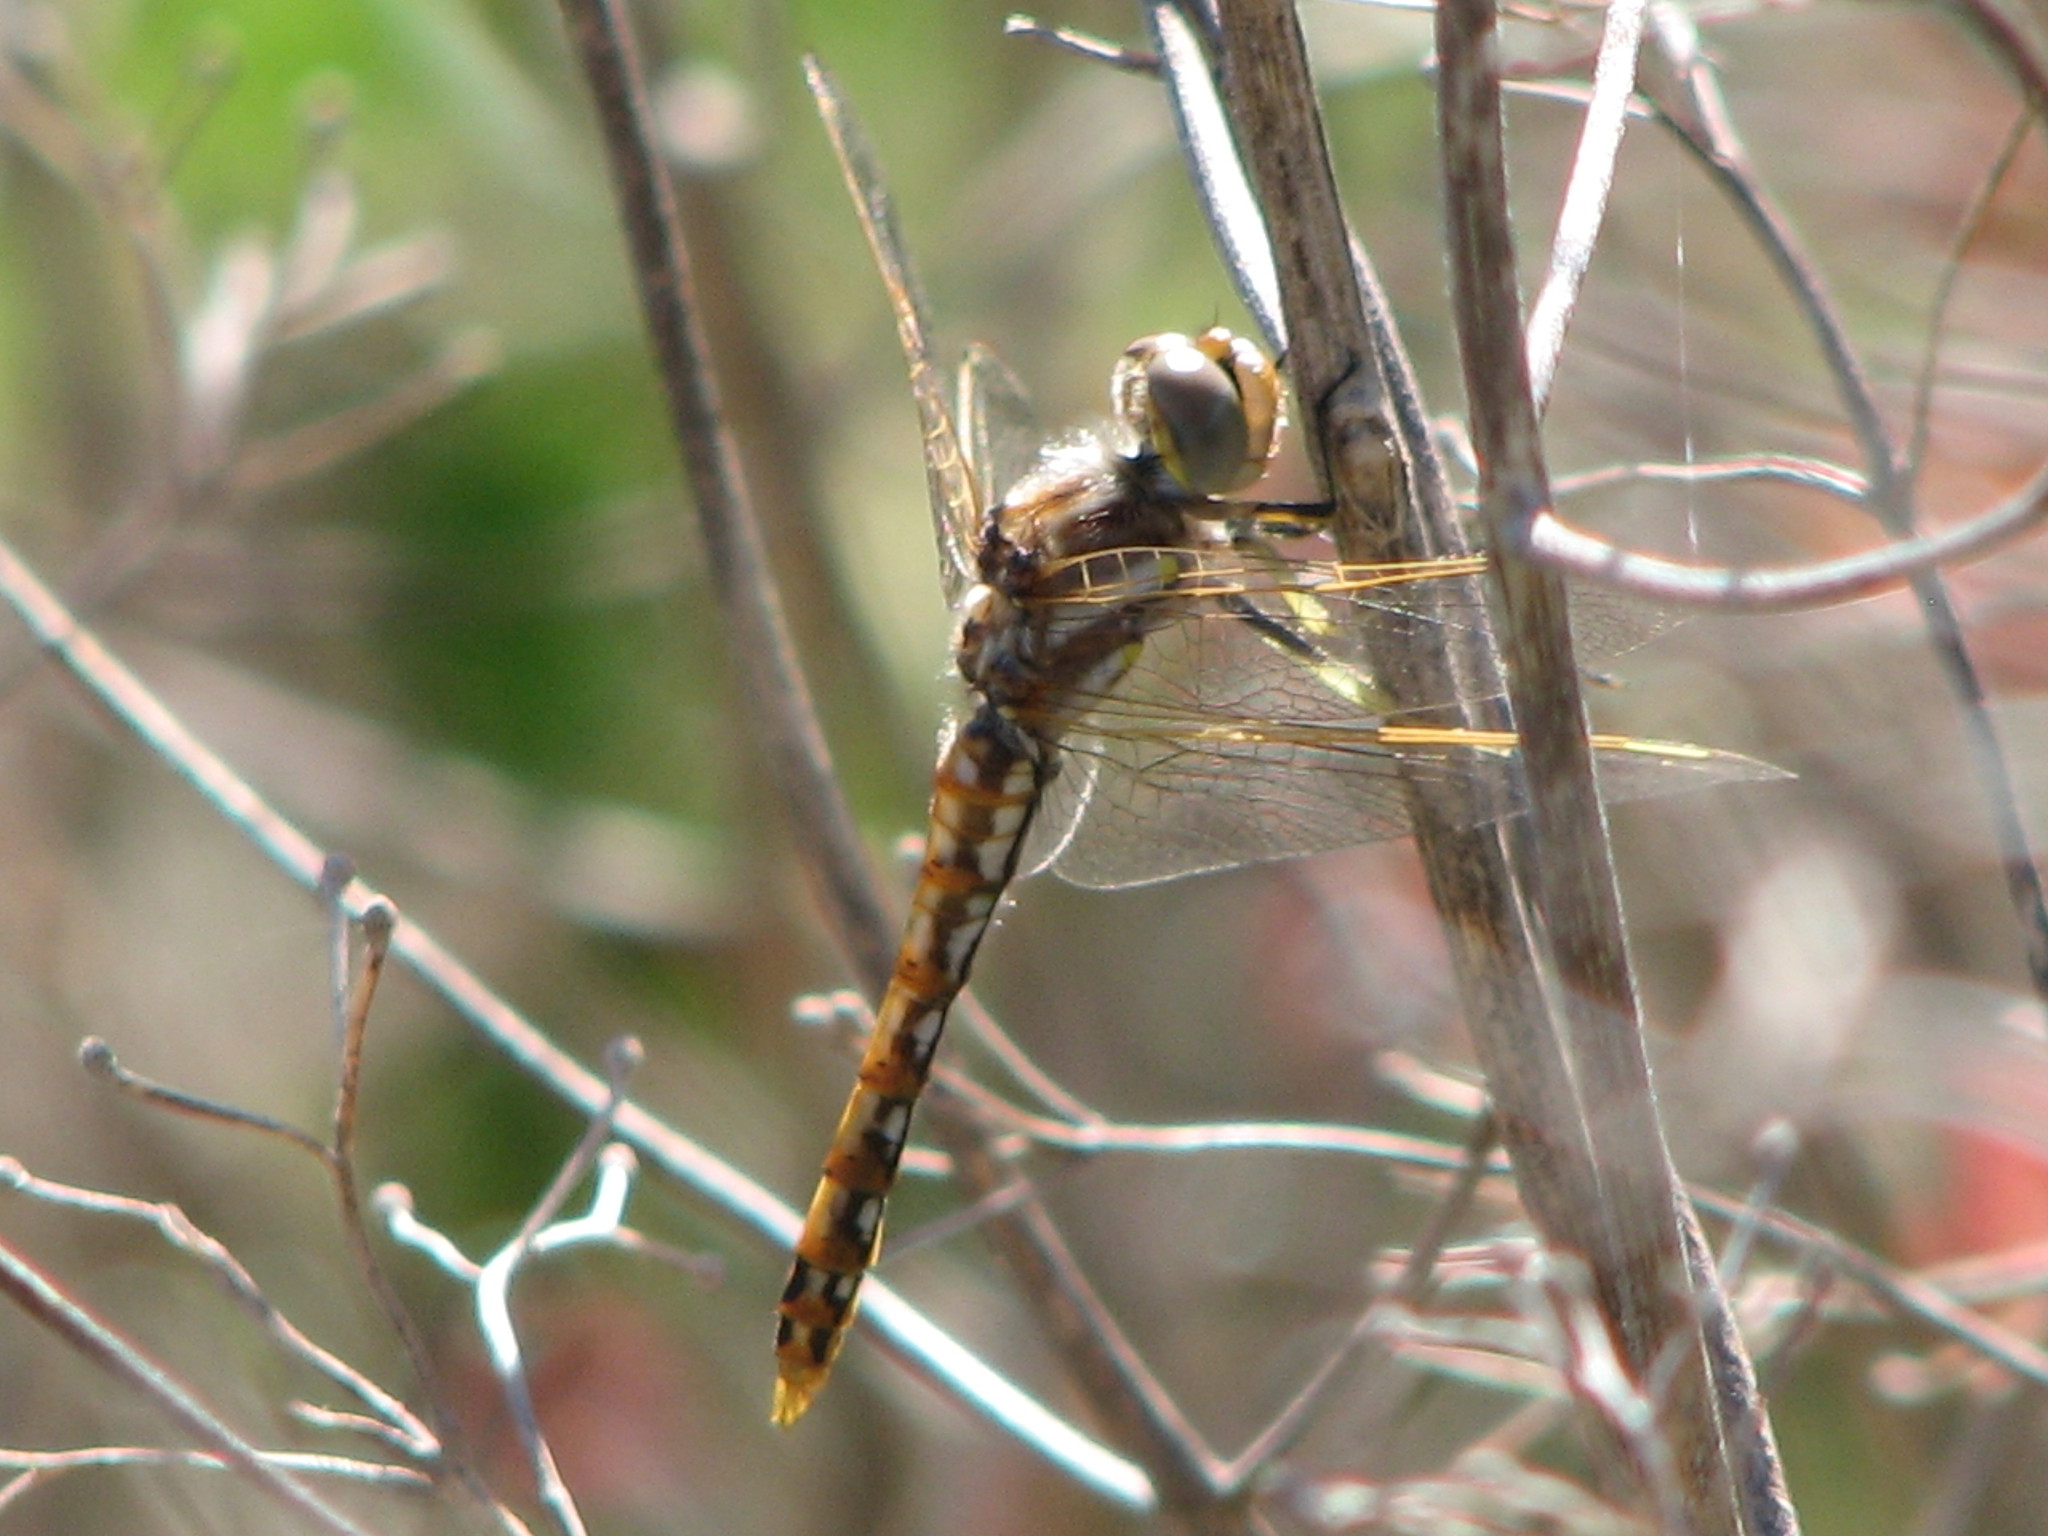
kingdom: Animalia
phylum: Arthropoda
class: Insecta
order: Odonata
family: Libellulidae
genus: Sympetrum
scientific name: Sympetrum corruptum
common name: Variegated meadowhawk
